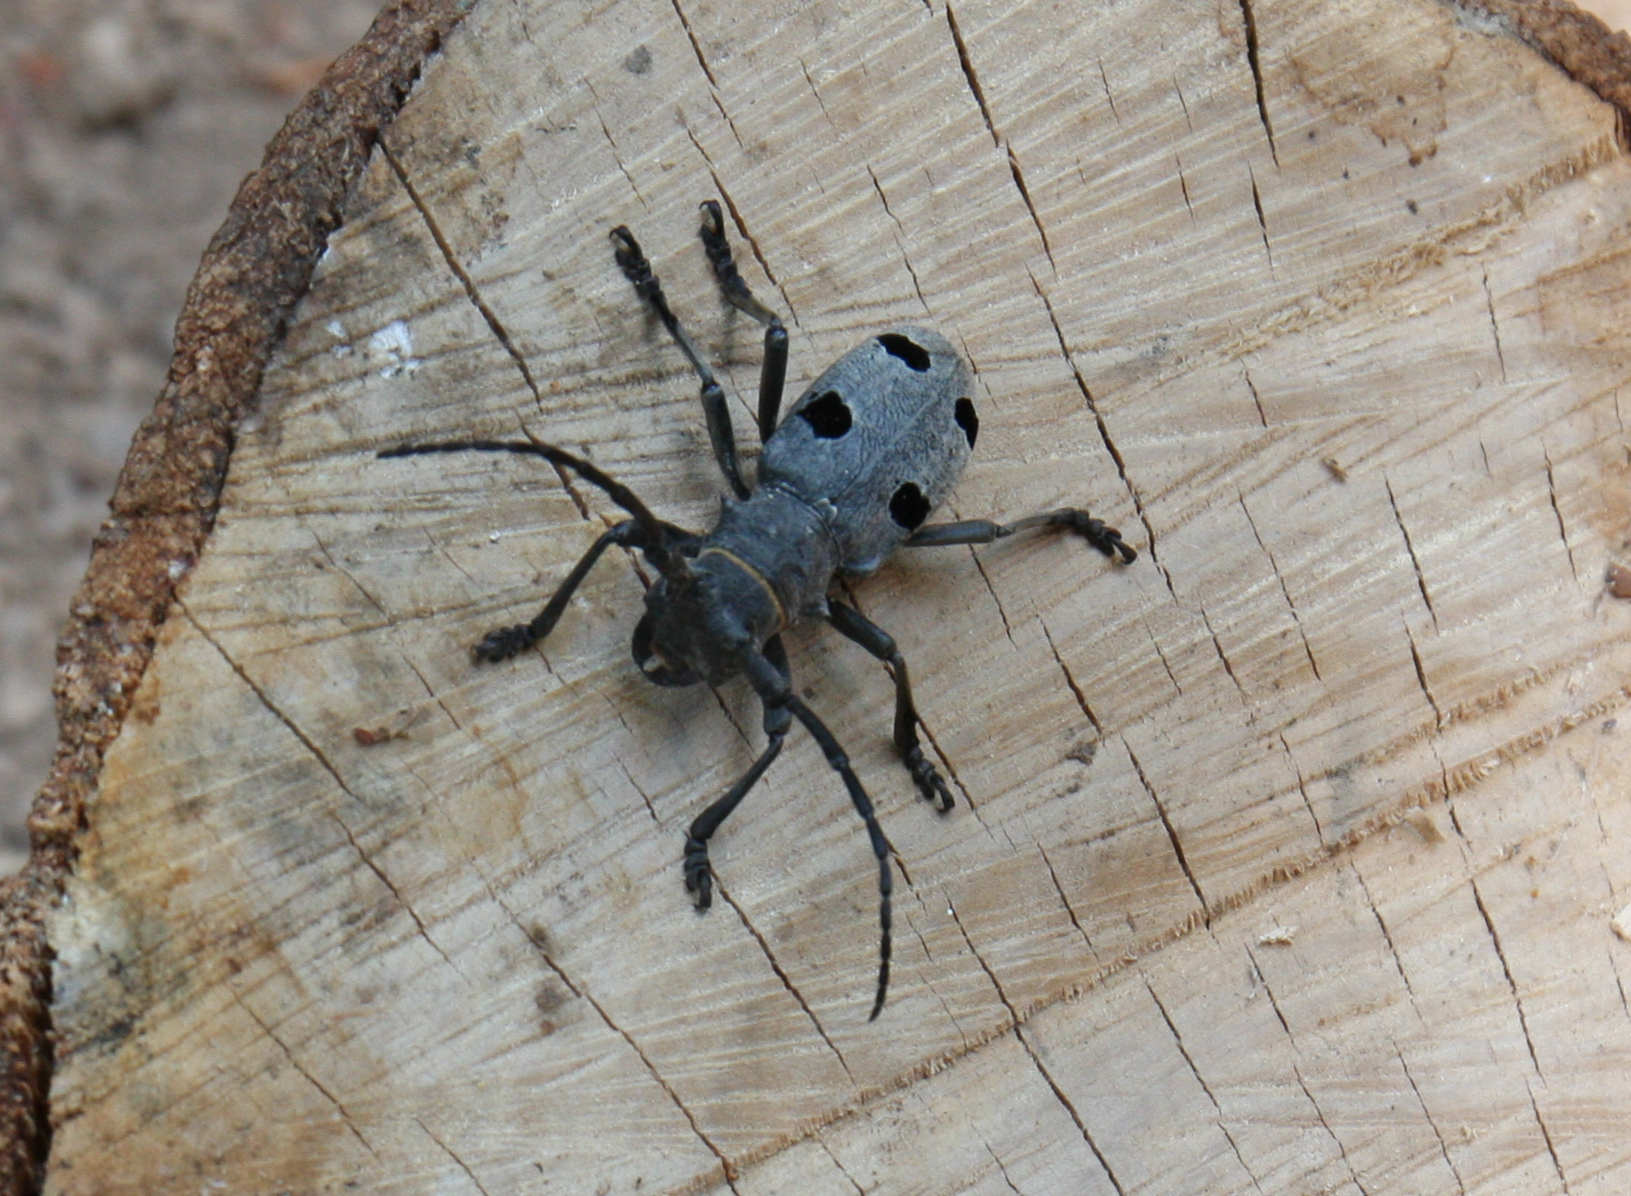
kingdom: Animalia
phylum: Arthropoda
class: Insecta
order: Coleoptera
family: Cerambycidae
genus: Morimus
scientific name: Morimus funereus
